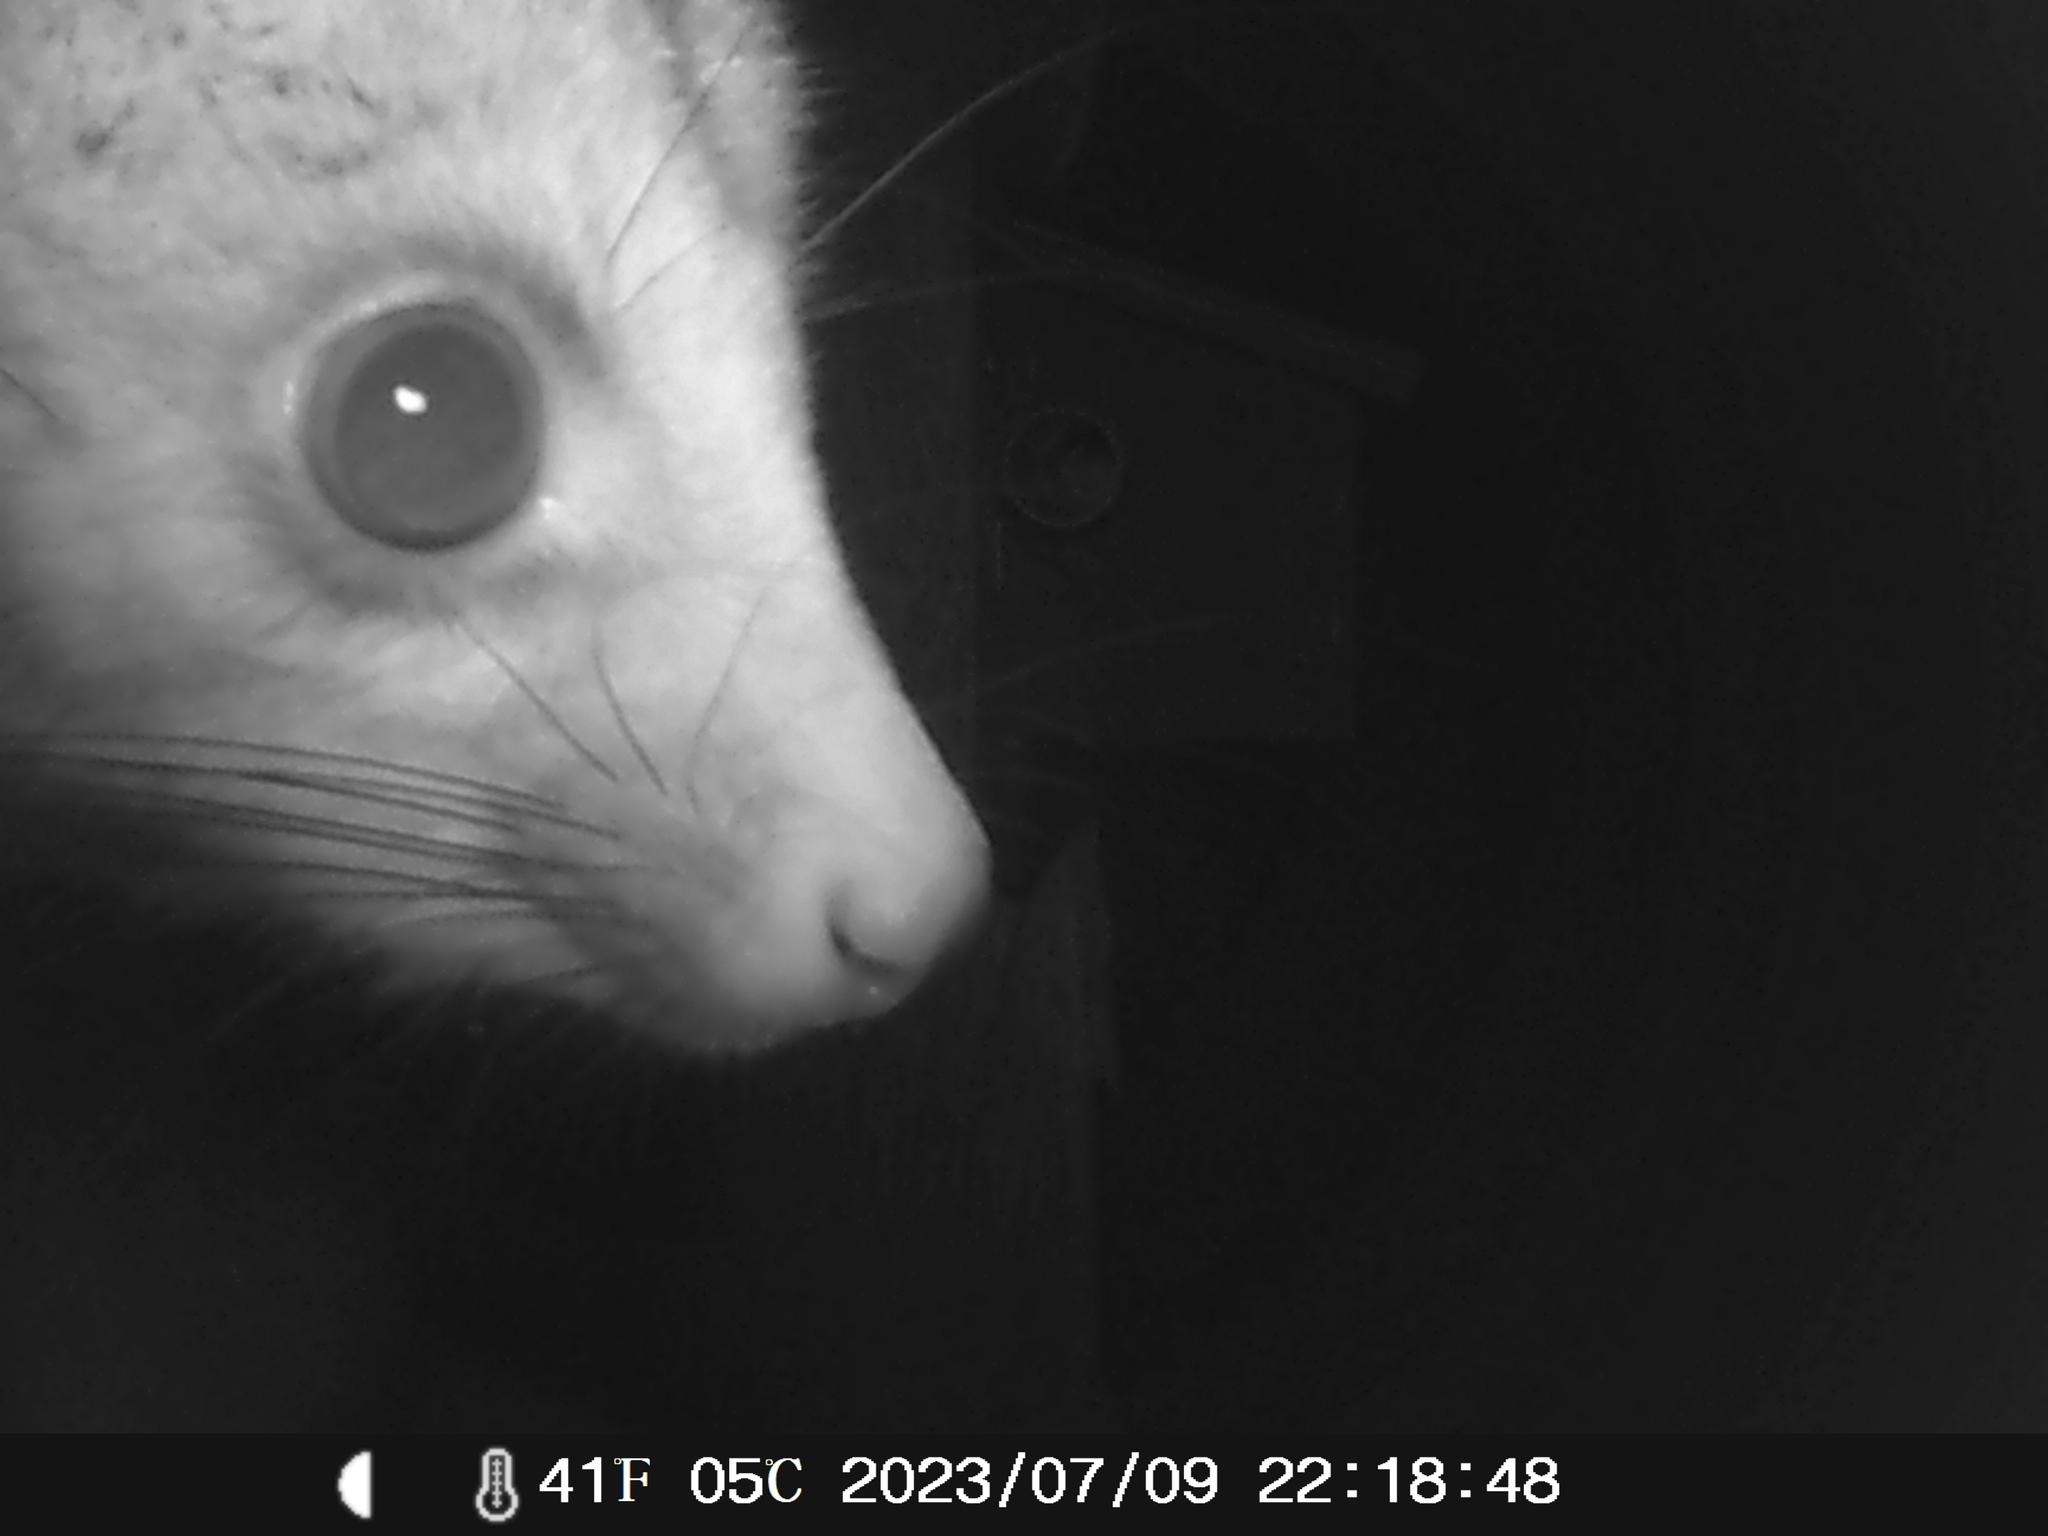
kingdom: Animalia
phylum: Chordata
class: Mammalia
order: Diprotodontia
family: Phalangeridae
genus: Trichosurus
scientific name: Trichosurus vulpecula
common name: Common brushtail
